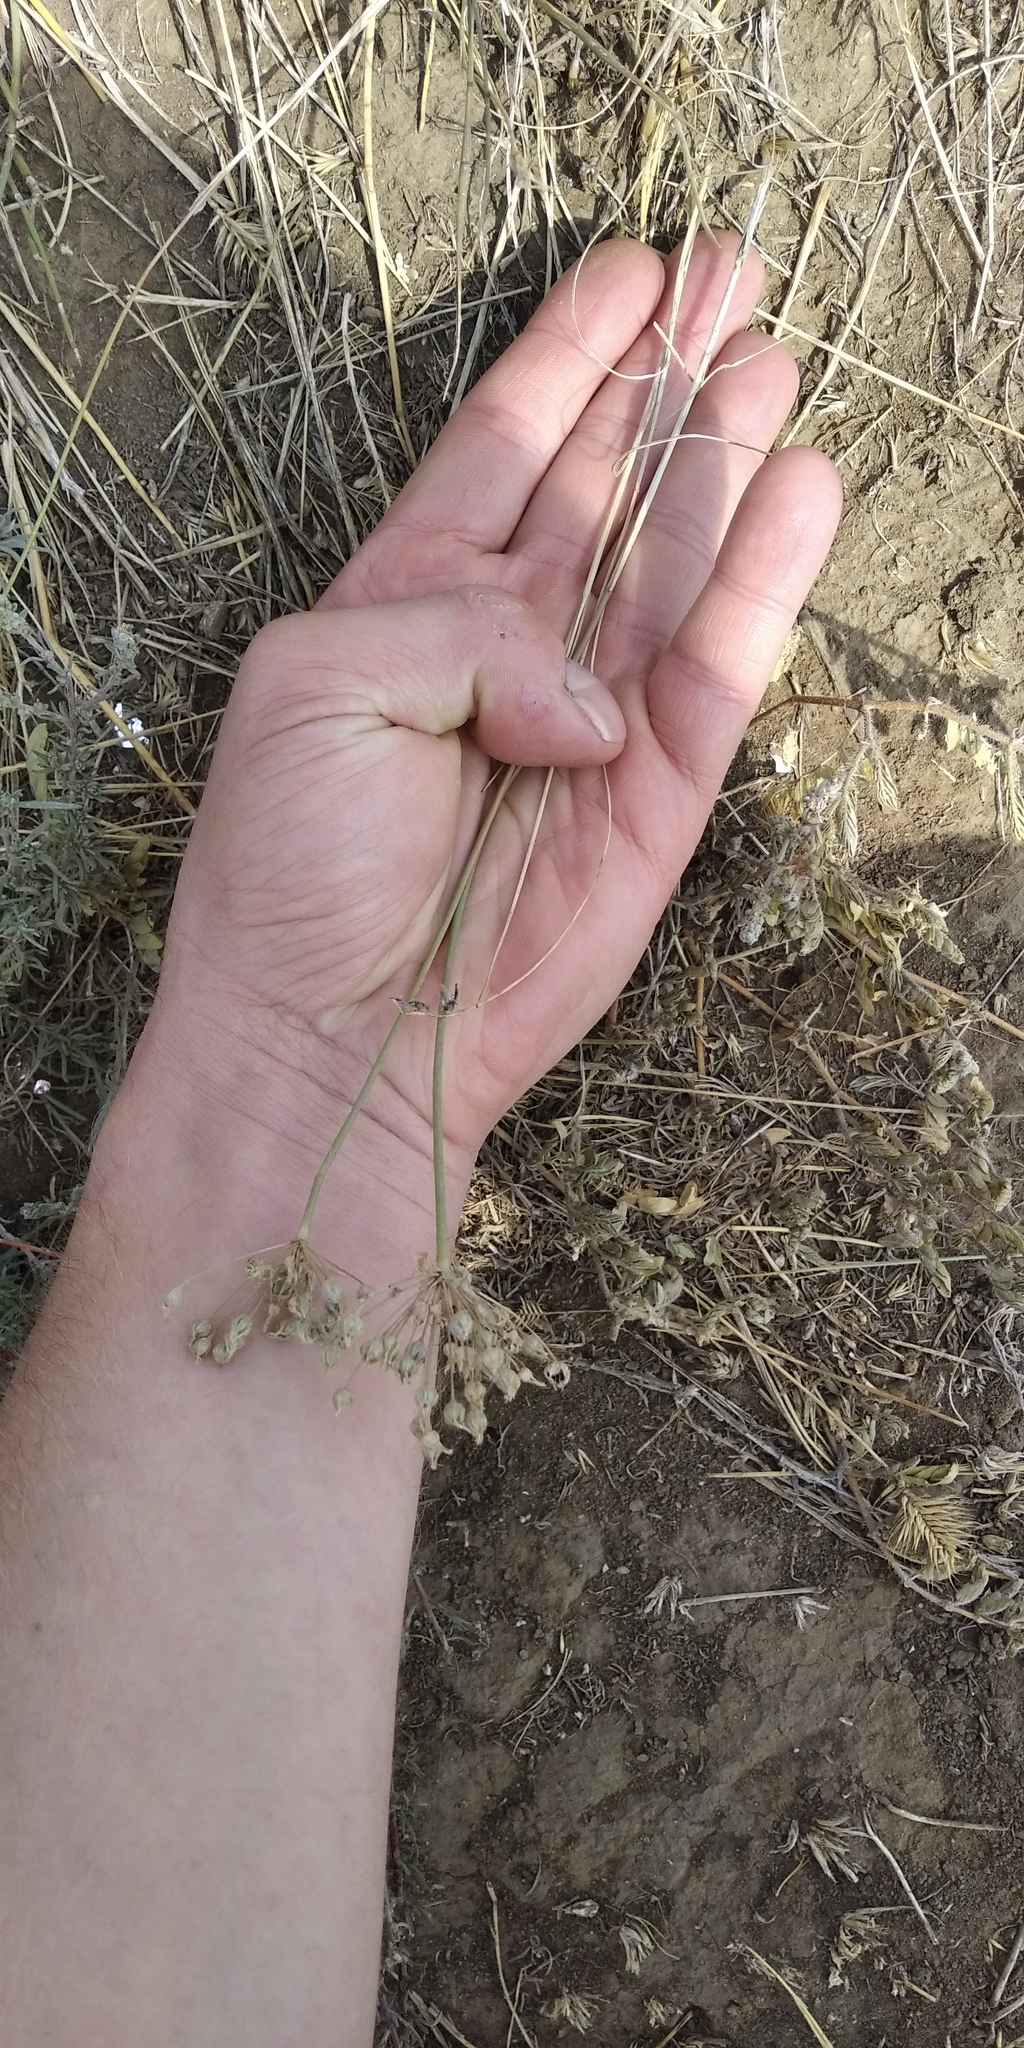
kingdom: Plantae
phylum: Tracheophyta
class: Liliopsida
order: Asparagales
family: Amaryllidaceae
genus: Allium
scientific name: Allium inaequale
